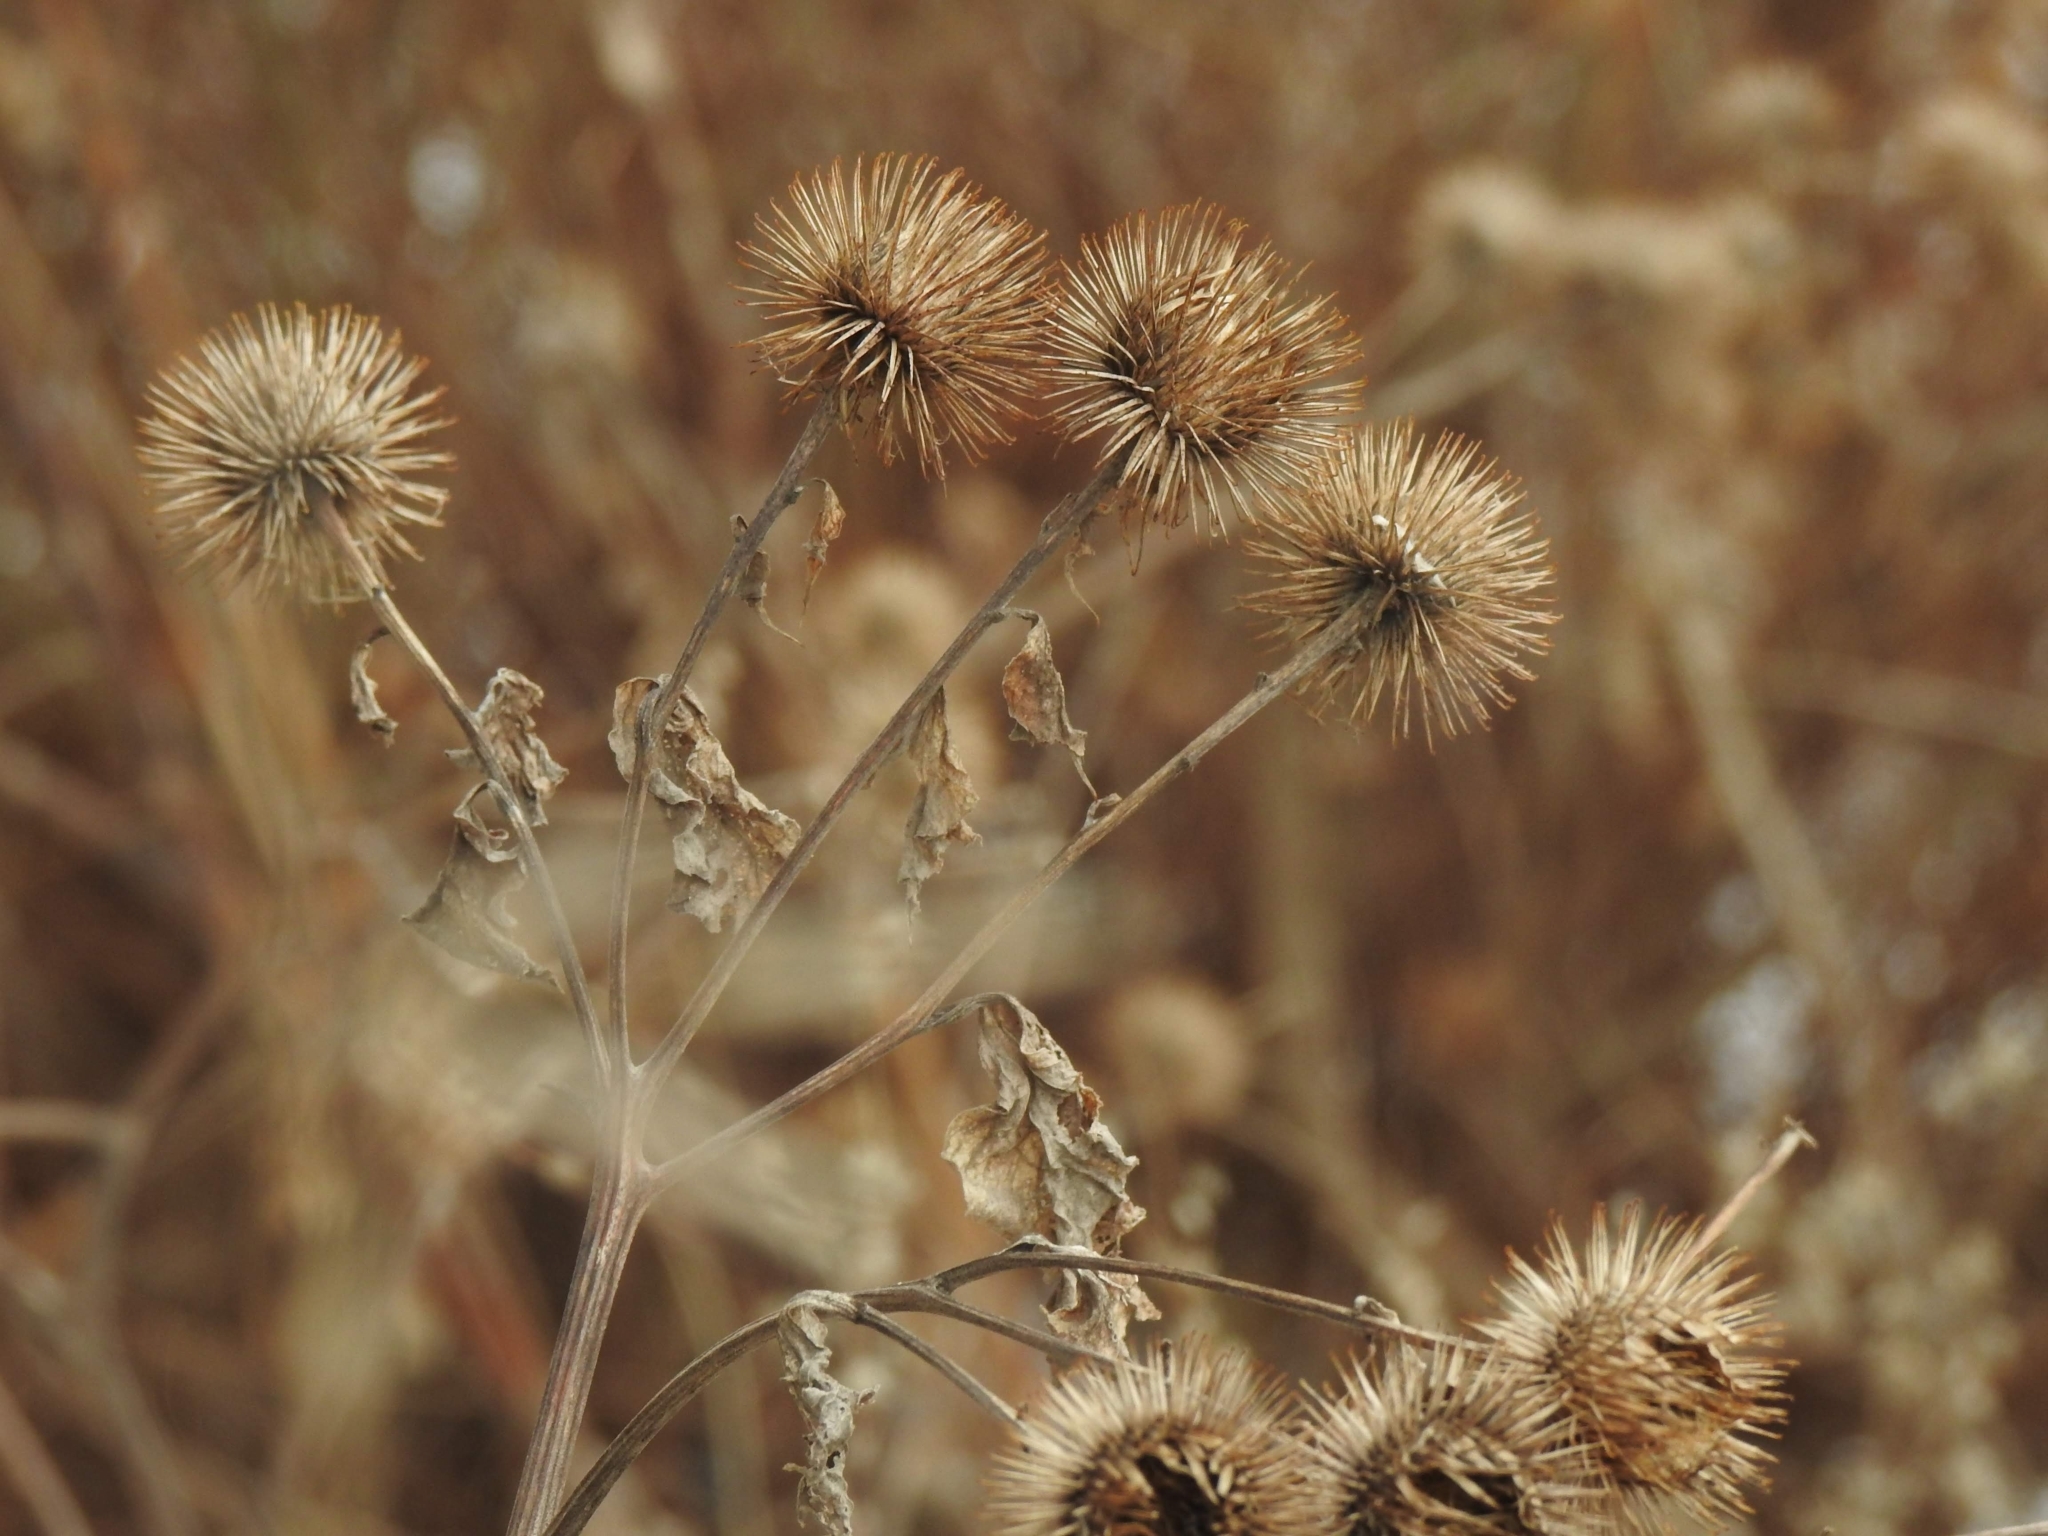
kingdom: Plantae
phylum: Tracheophyta
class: Magnoliopsida
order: Asterales
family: Asteraceae
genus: Arctium
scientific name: Arctium lappa
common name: Greater burdock
